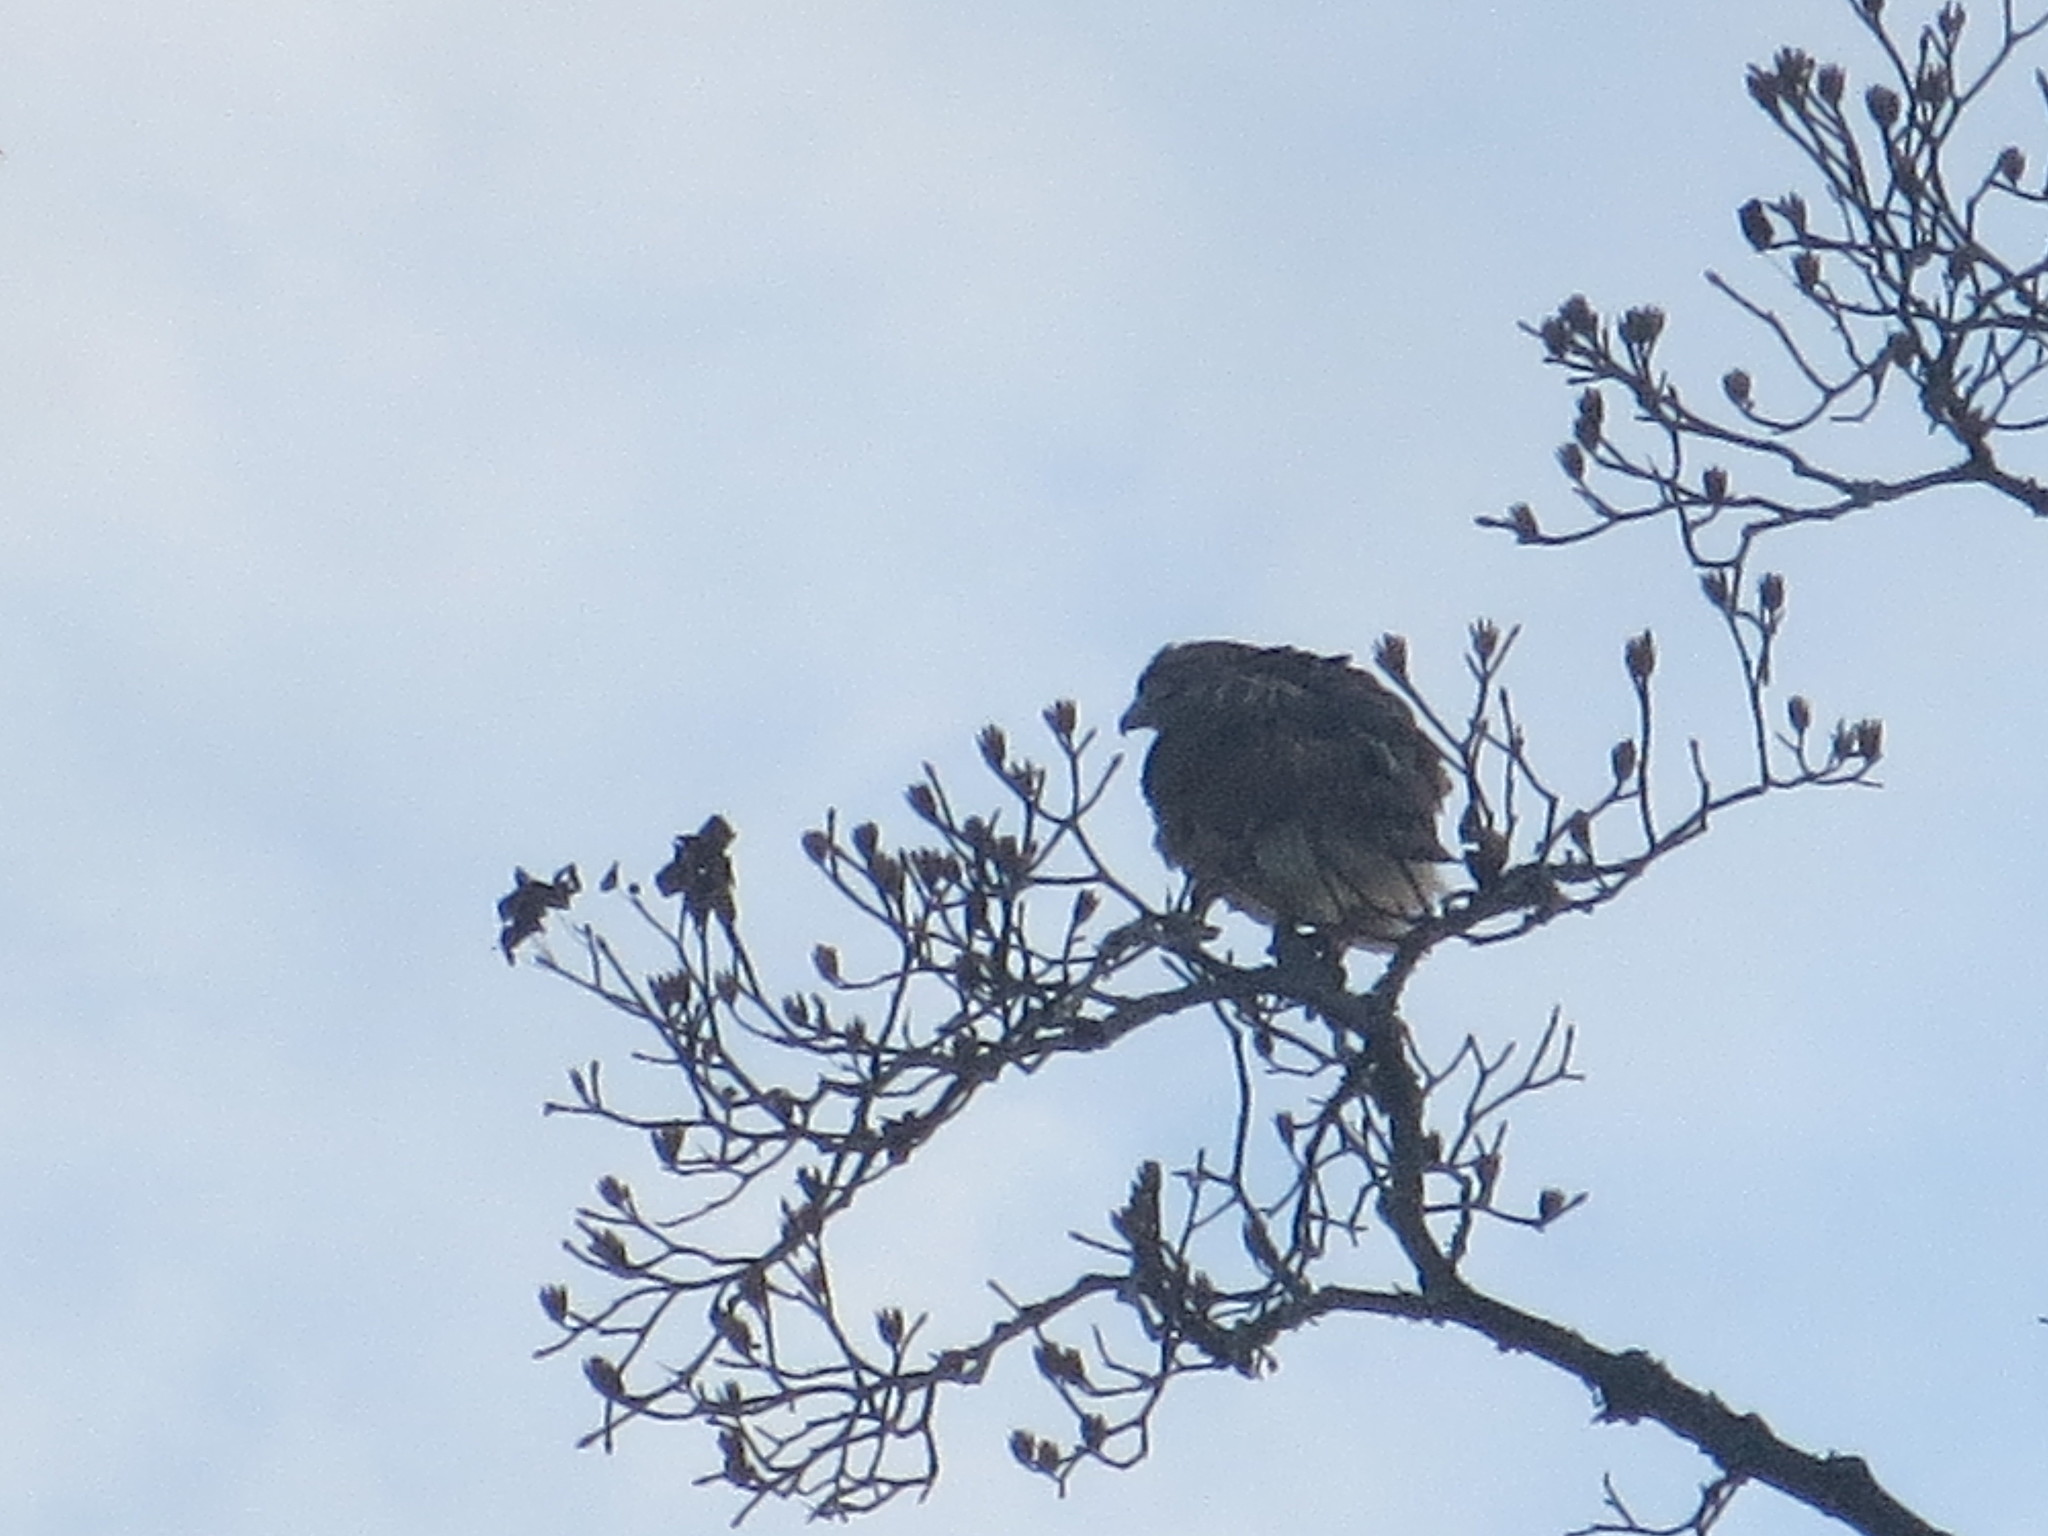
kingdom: Plantae
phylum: Tracheophyta
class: Magnoliopsida
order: Magnoliales
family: Magnoliaceae
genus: Liriodendron
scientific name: Liriodendron tulipifera
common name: Tulip tree
